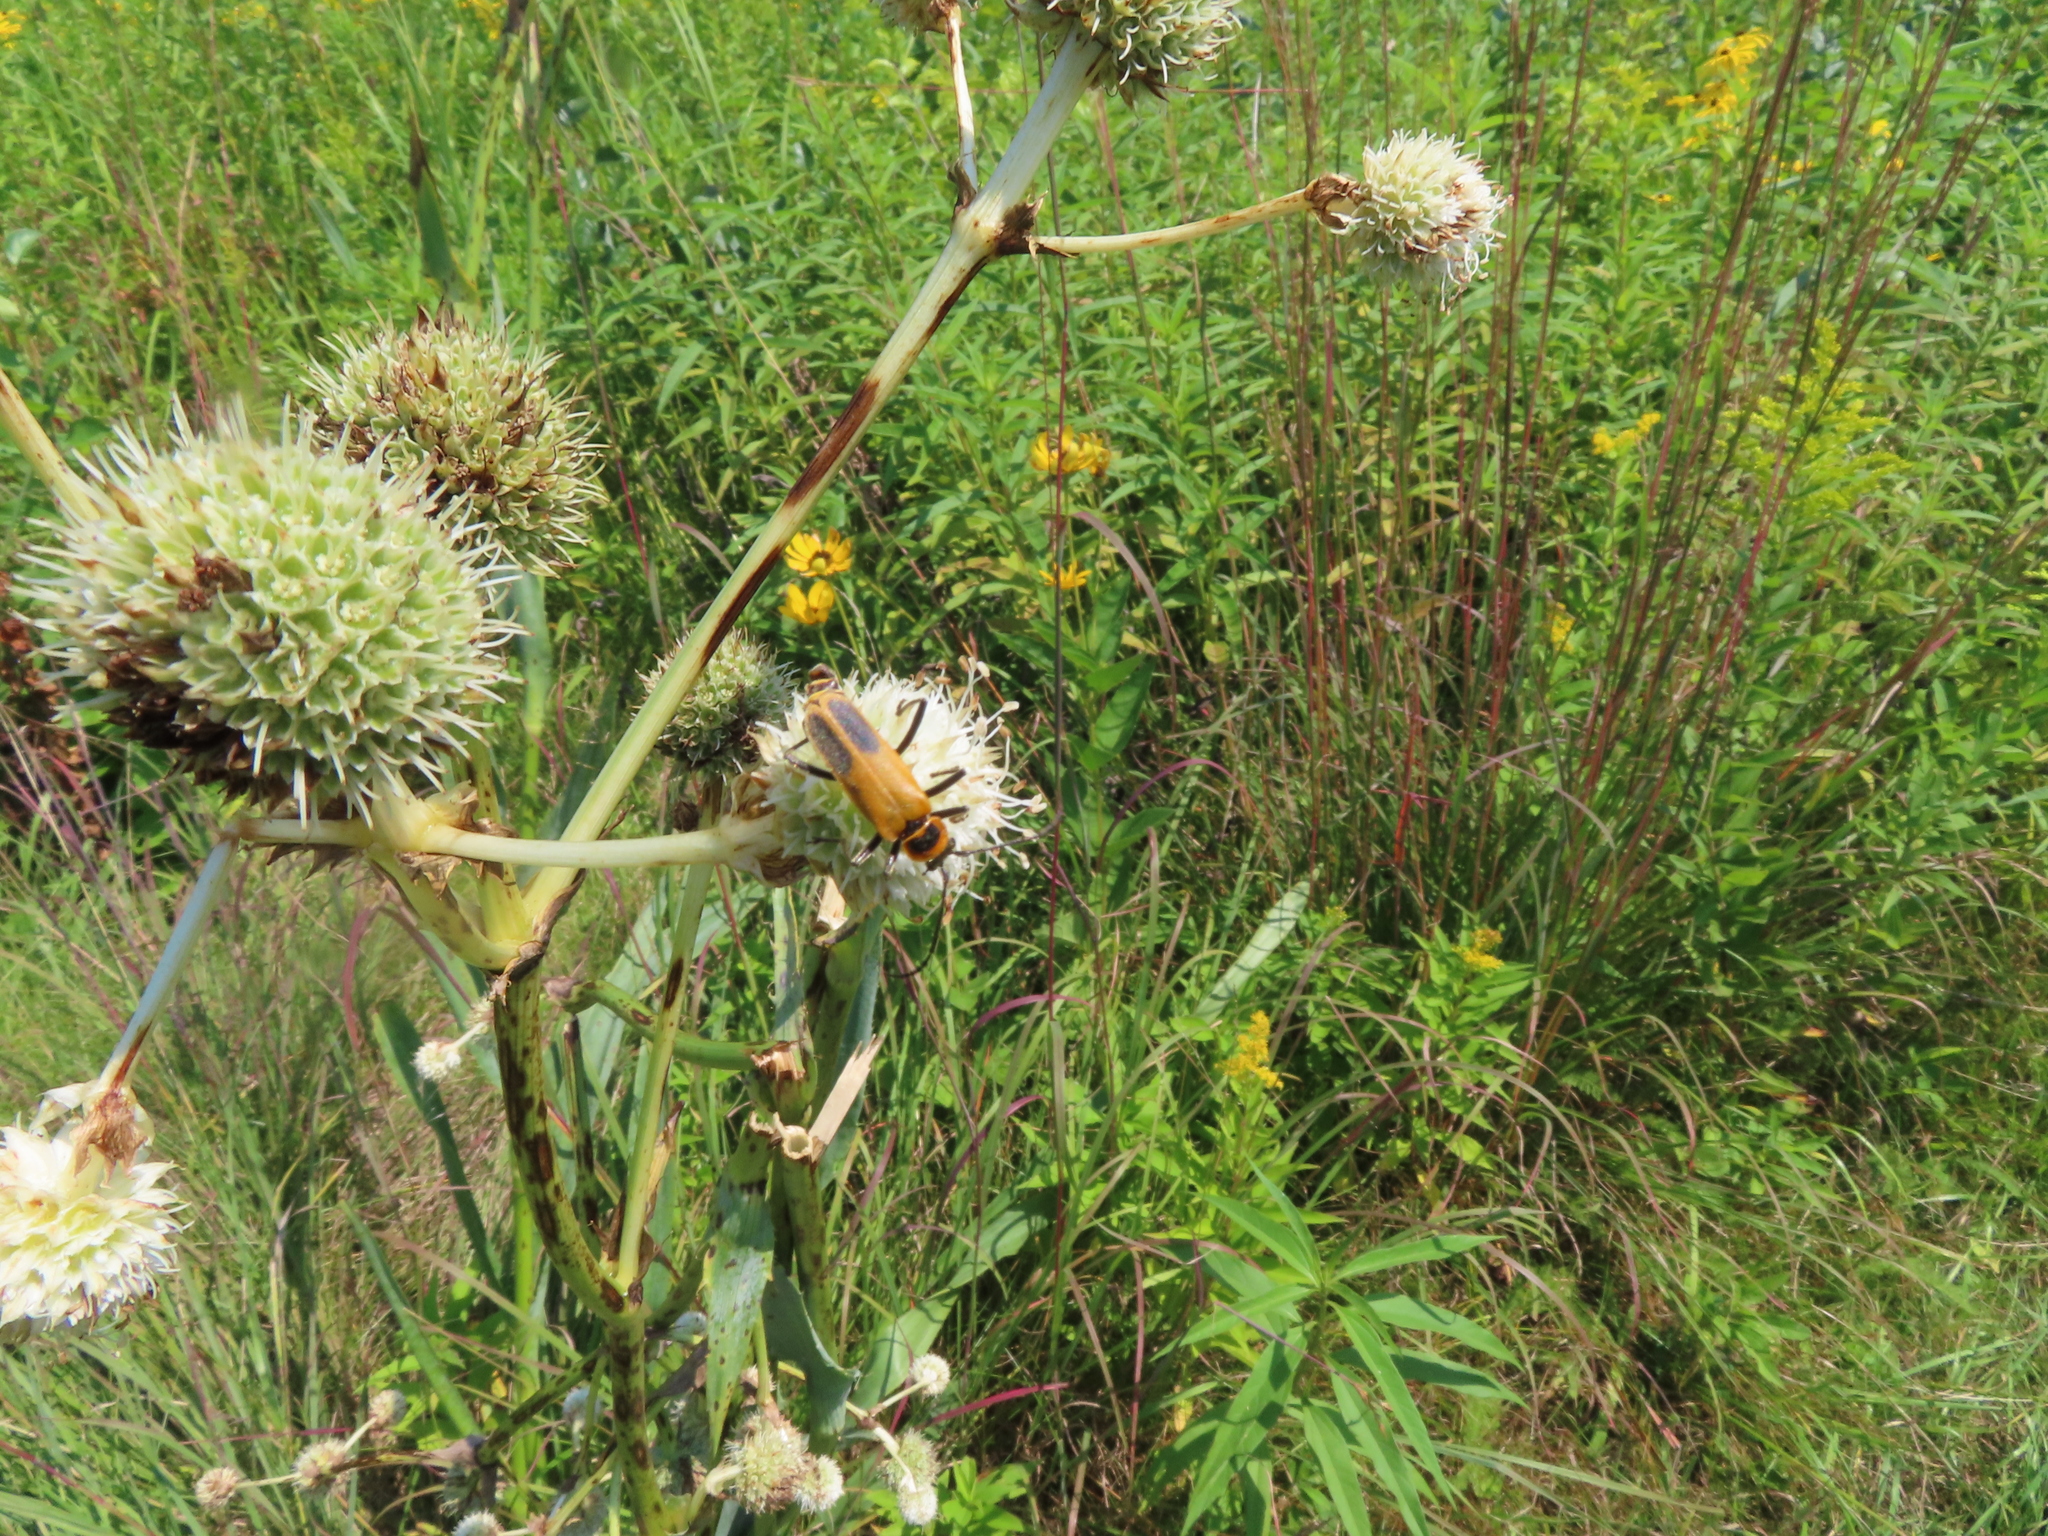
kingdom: Animalia
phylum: Arthropoda
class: Insecta
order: Coleoptera
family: Cantharidae
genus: Chauliognathus
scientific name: Chauliognathus pensylvanicus
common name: Goldenrod soldier beetle
